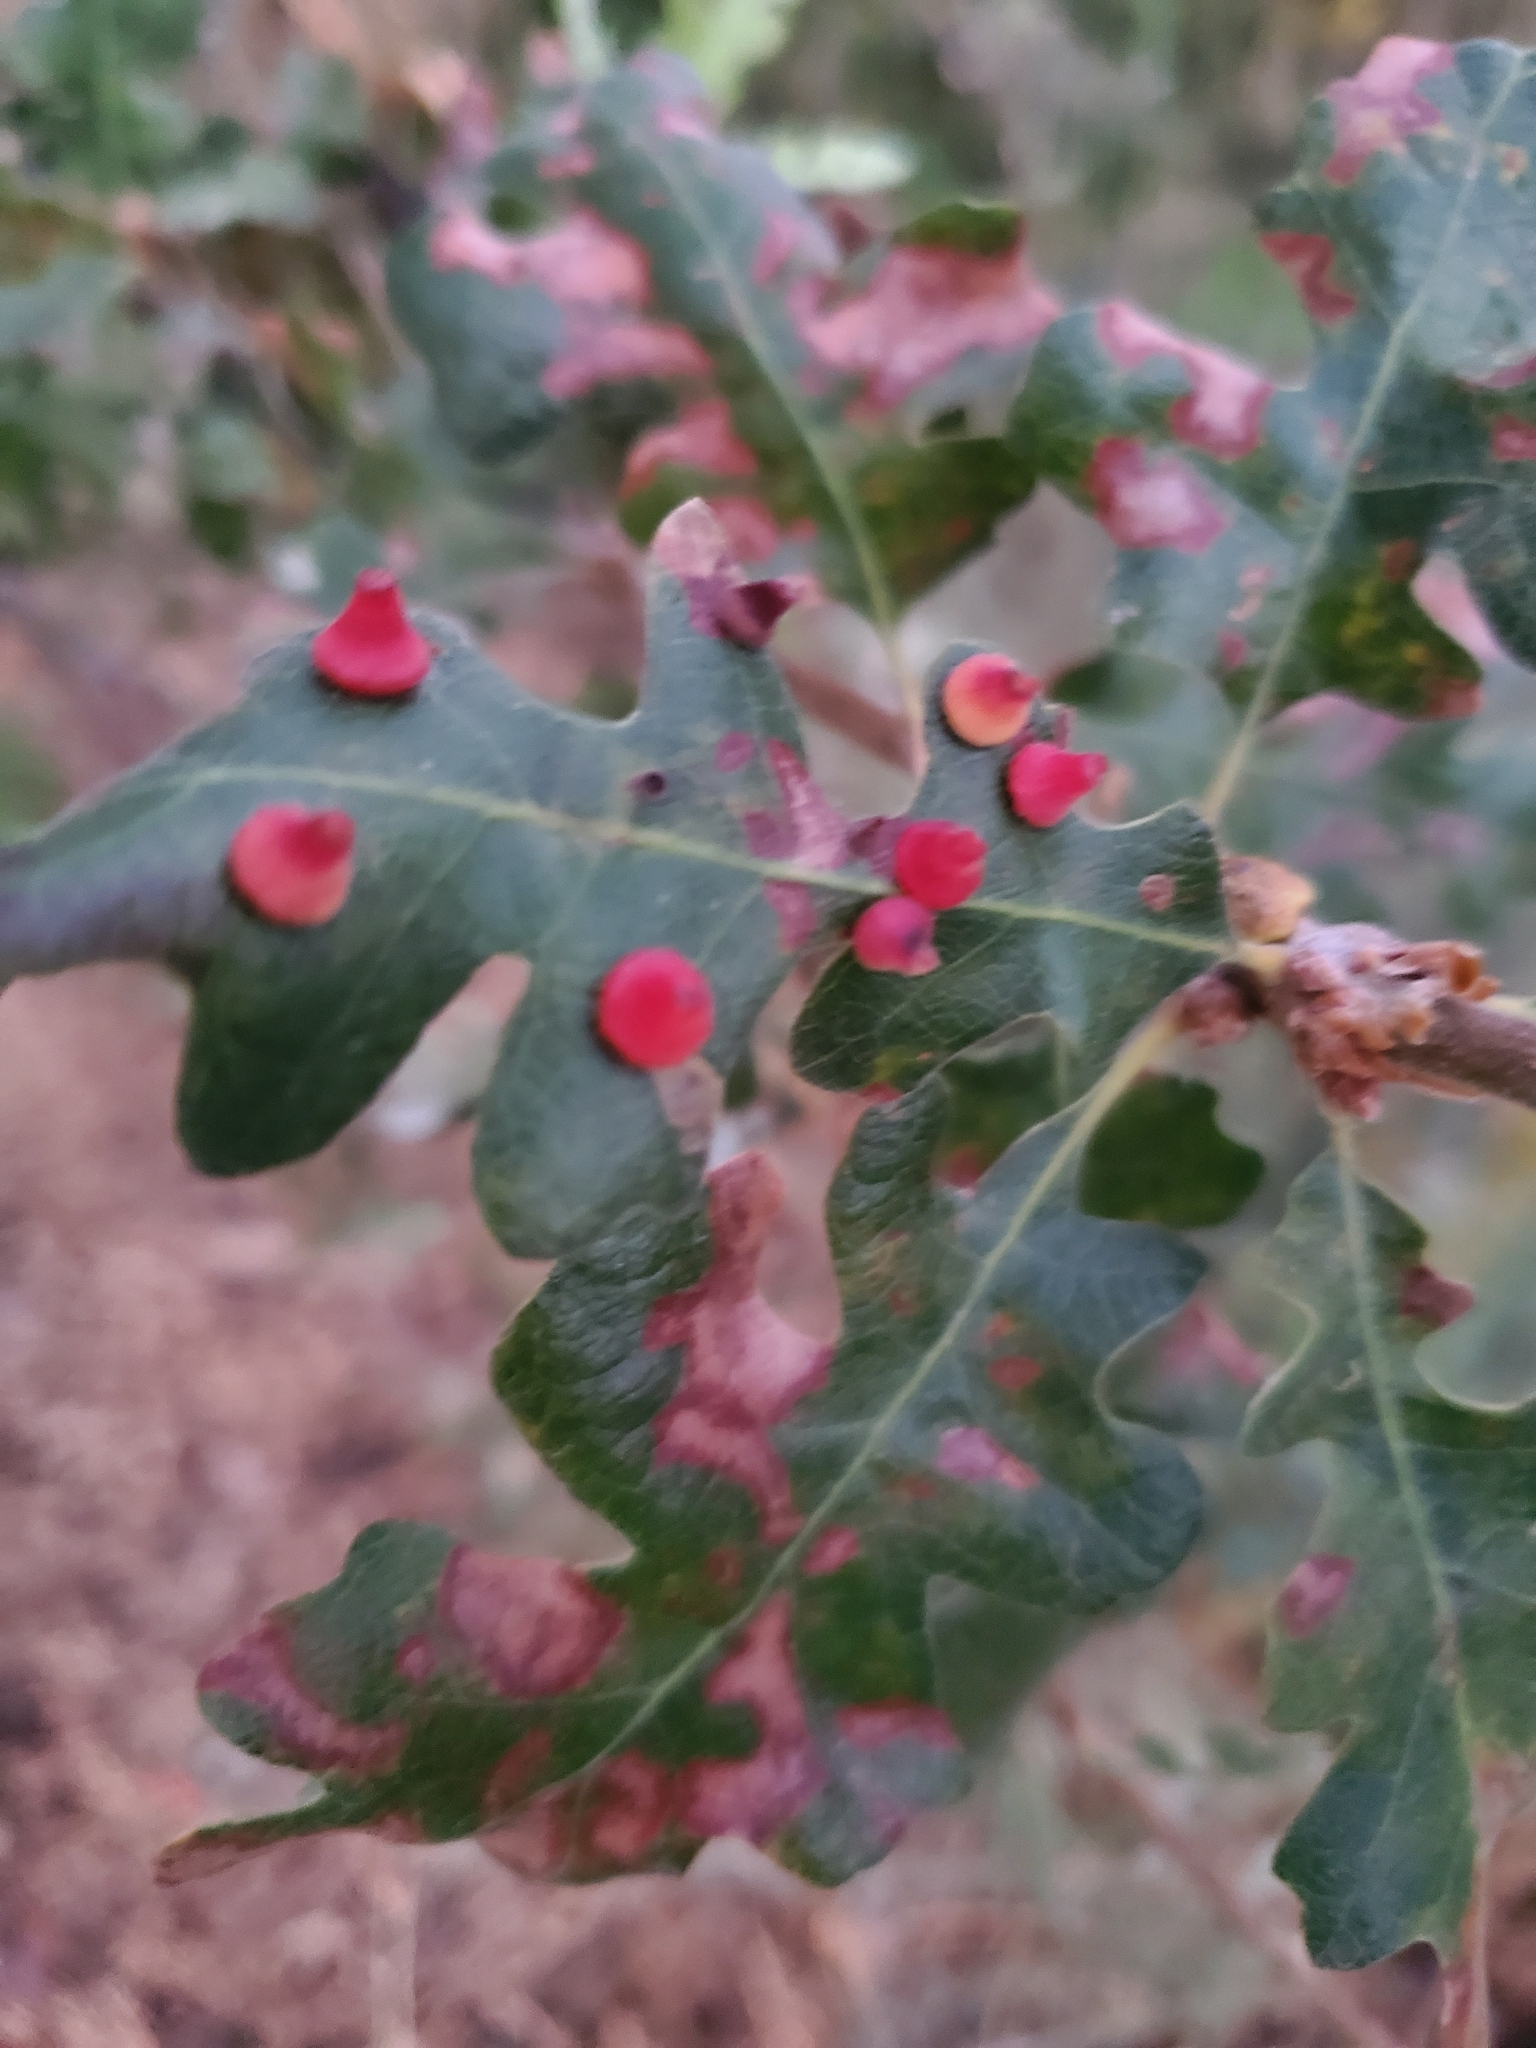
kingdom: Animalia
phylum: Arthropoda
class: Insecta
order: Hymenoptera
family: Cynipidae
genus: Andricus
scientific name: Andricus
